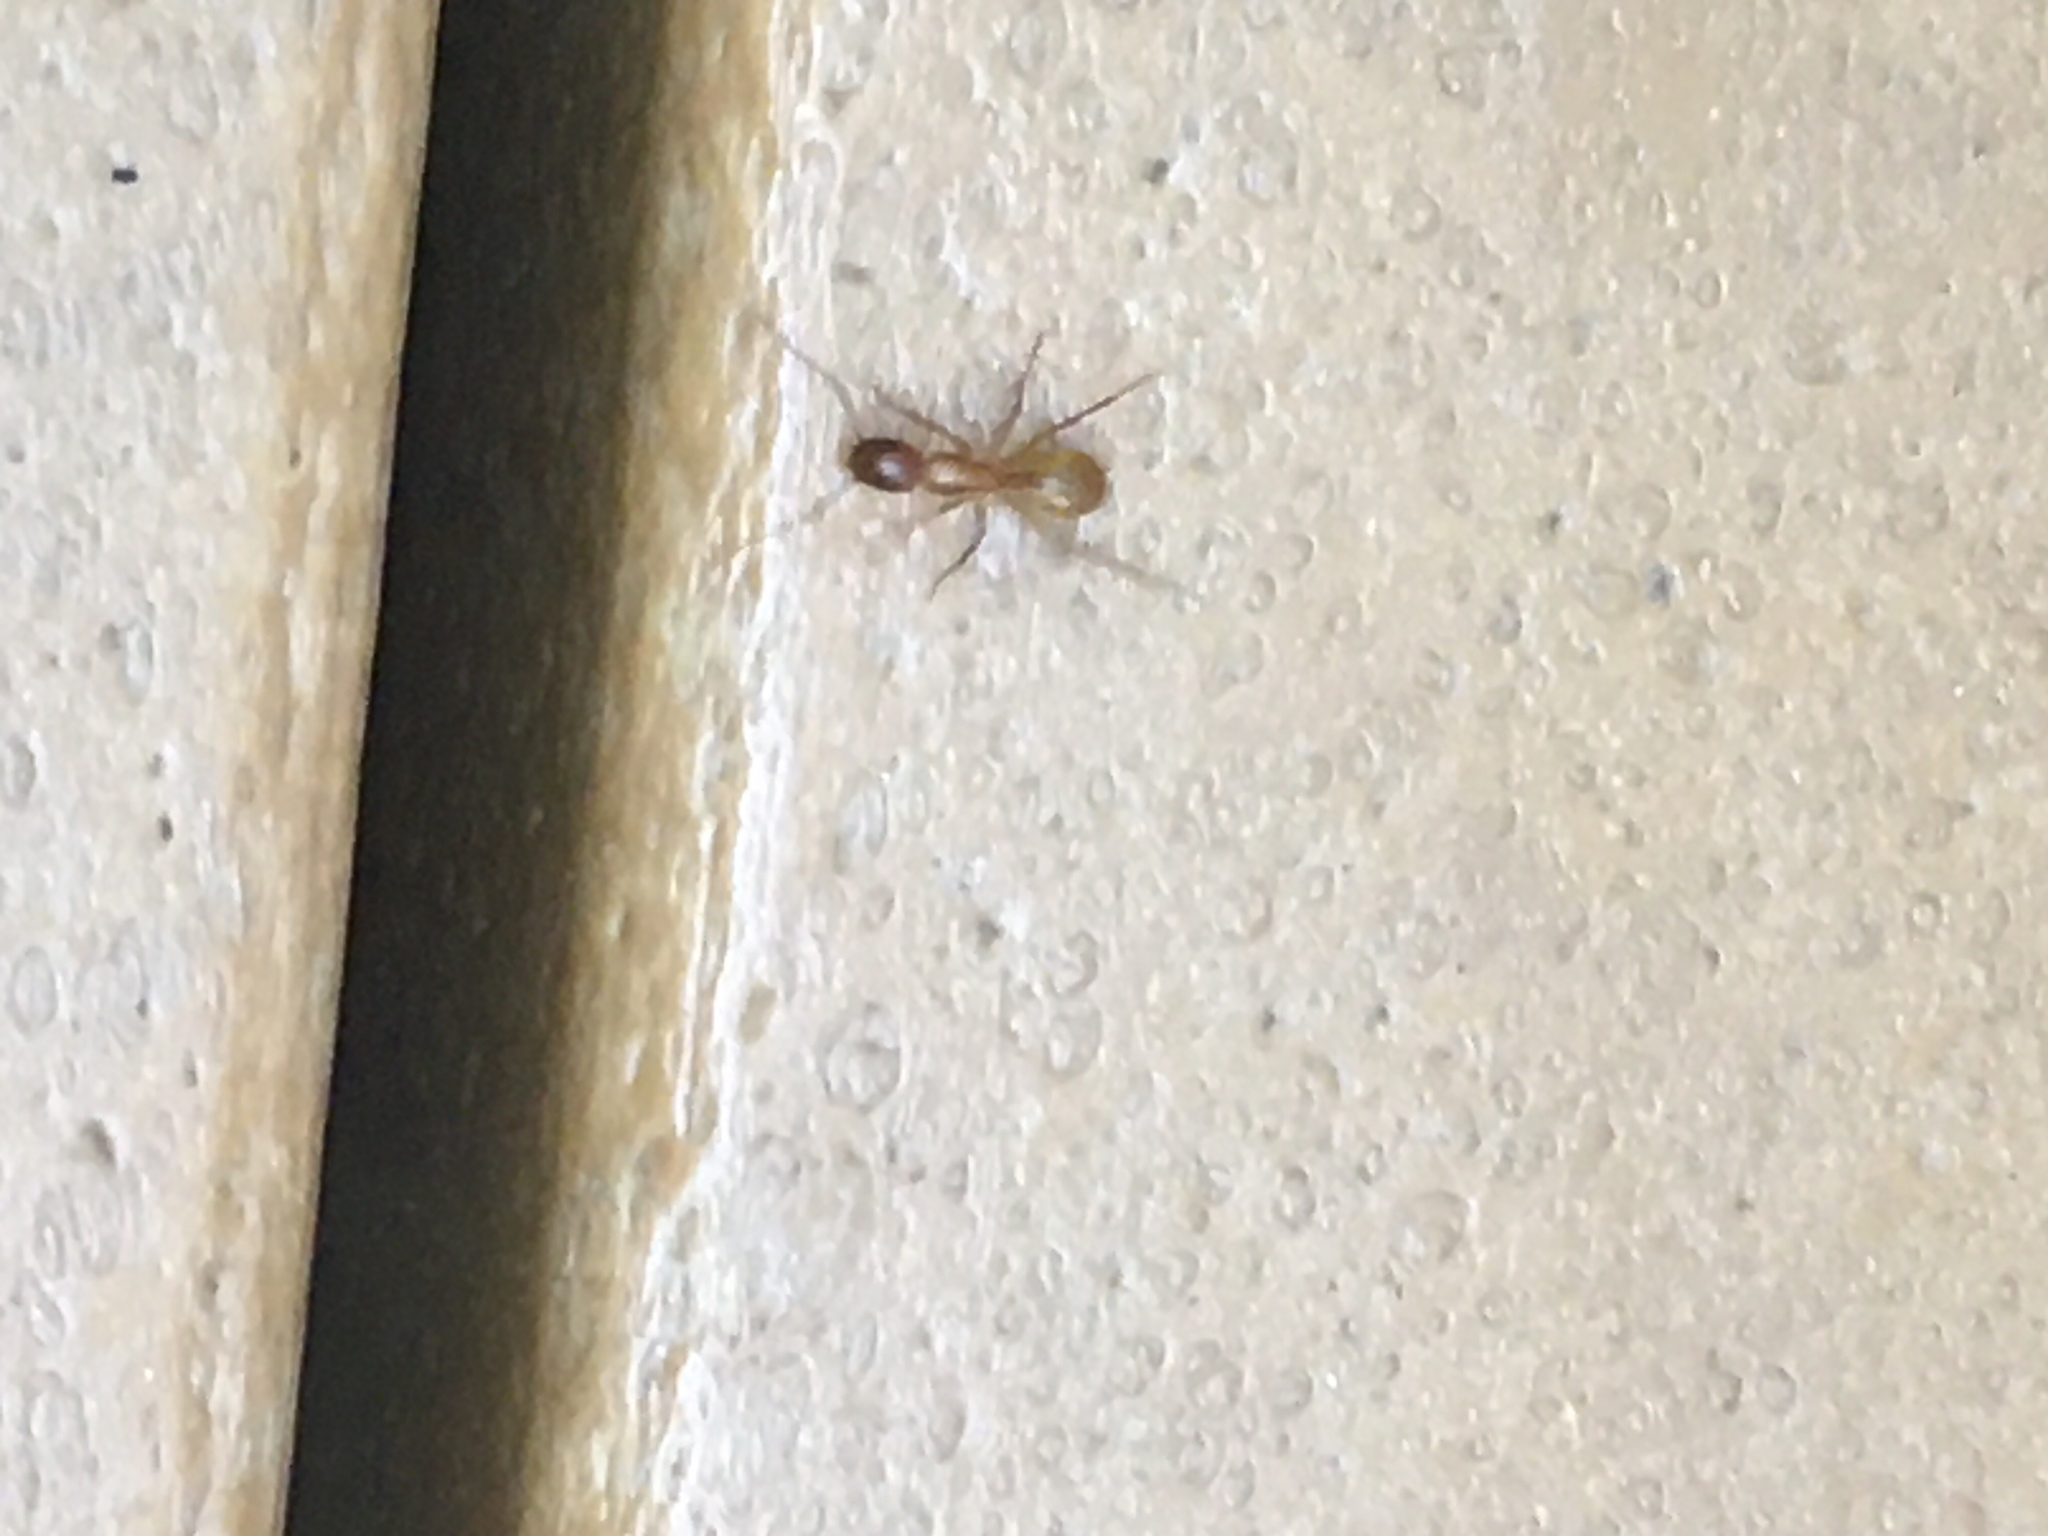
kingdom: Animalia
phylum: Arthropoda
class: Insecta
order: Hymenoptera
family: Formicidae
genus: Camponotus
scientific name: Camponotus castaneus
